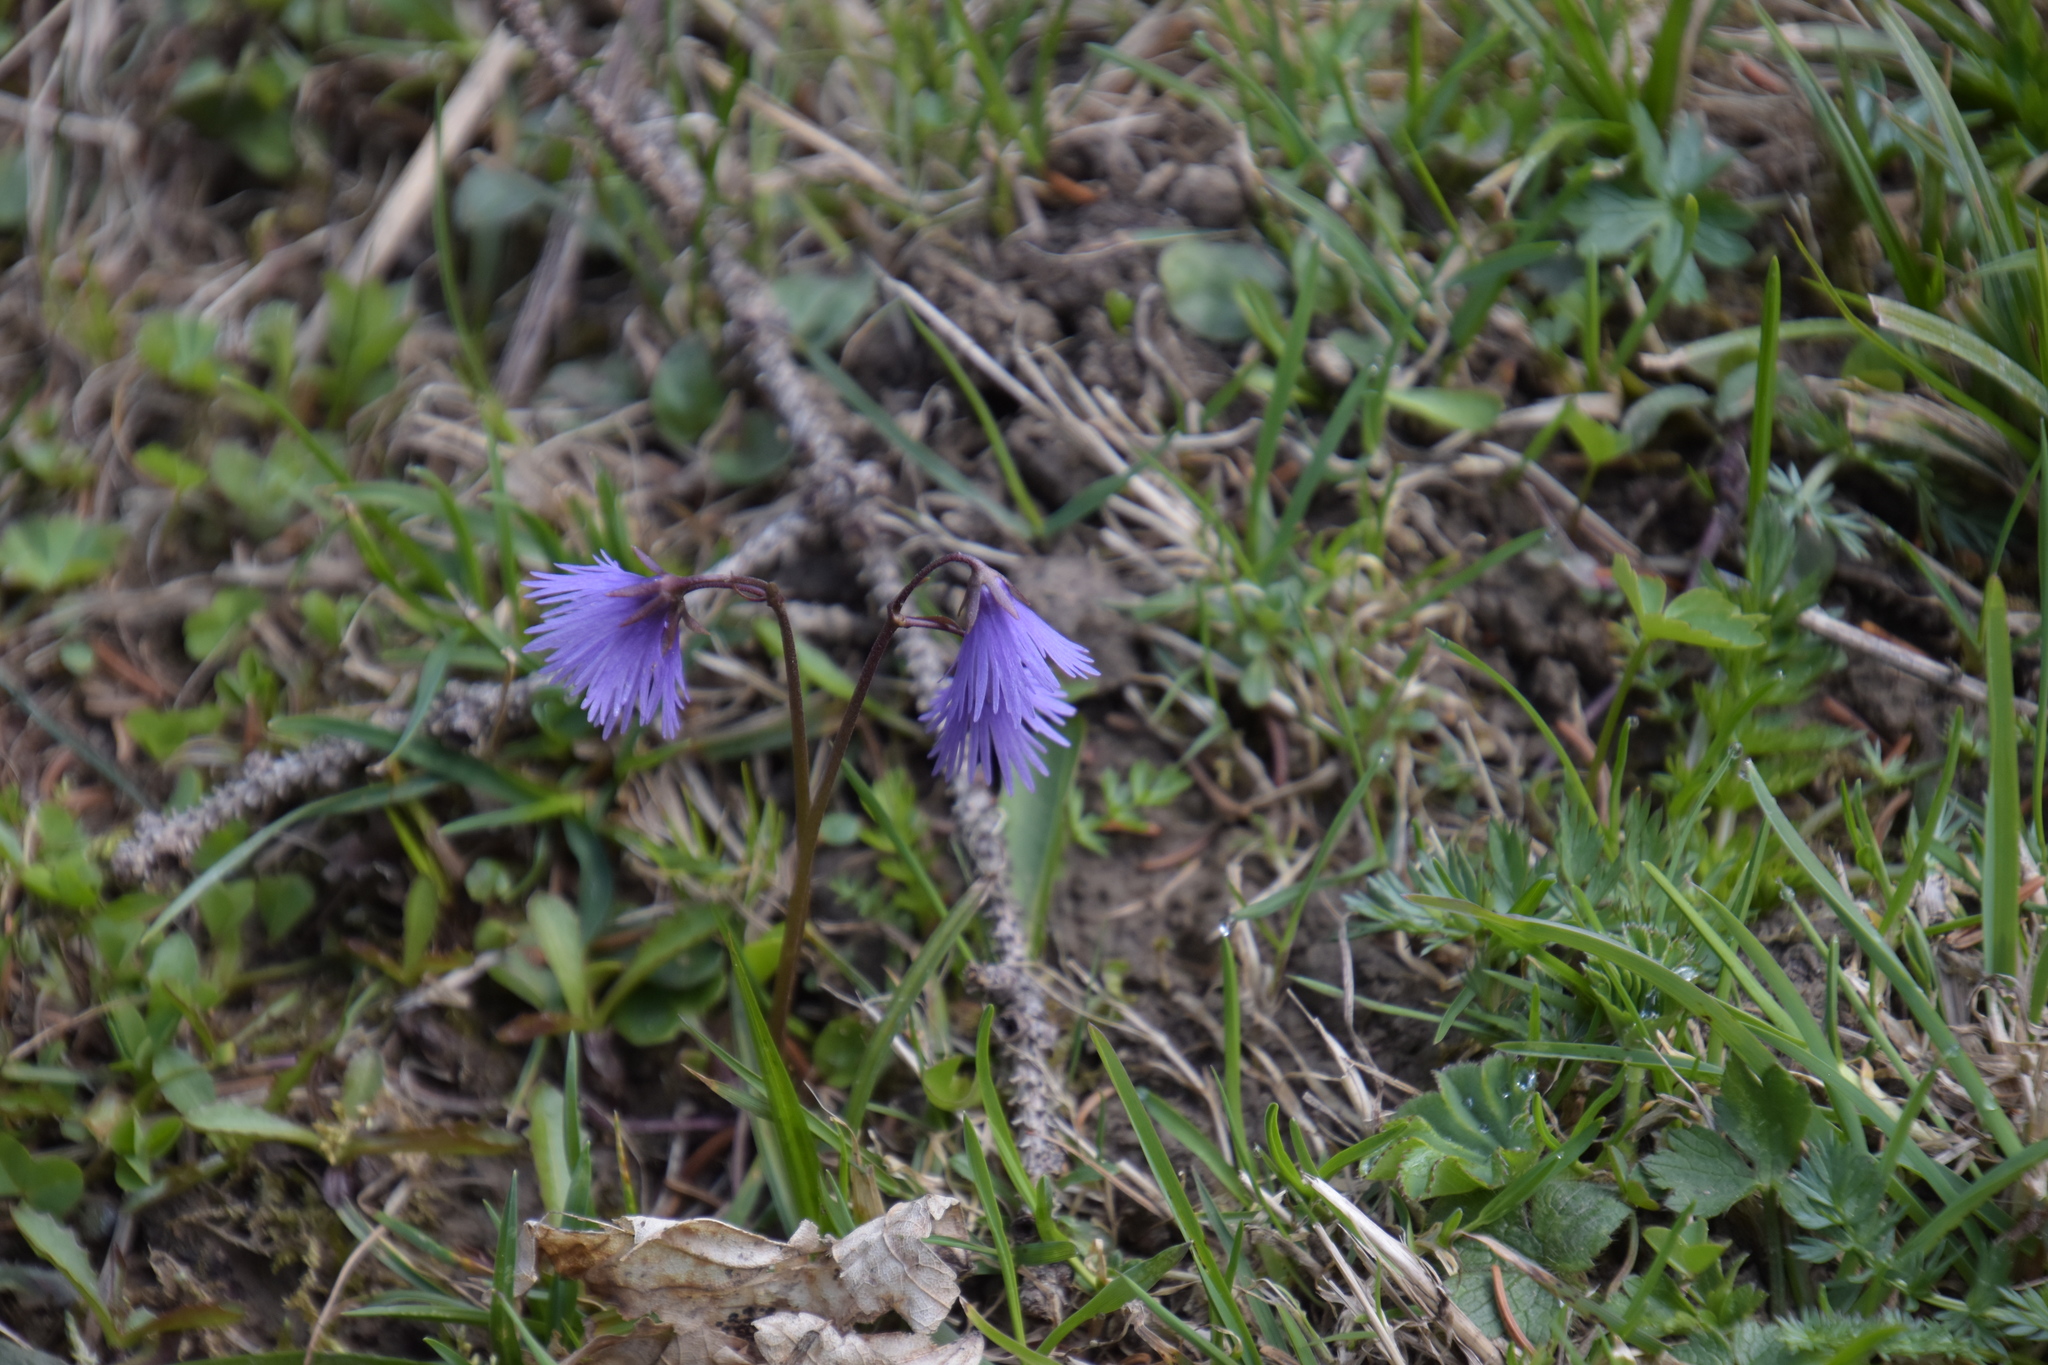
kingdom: Plantae
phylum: Tracheophyta
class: Magnoliopsida
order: Ericales
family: Primulaceae
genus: Soldanella
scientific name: Soldanella alpina
